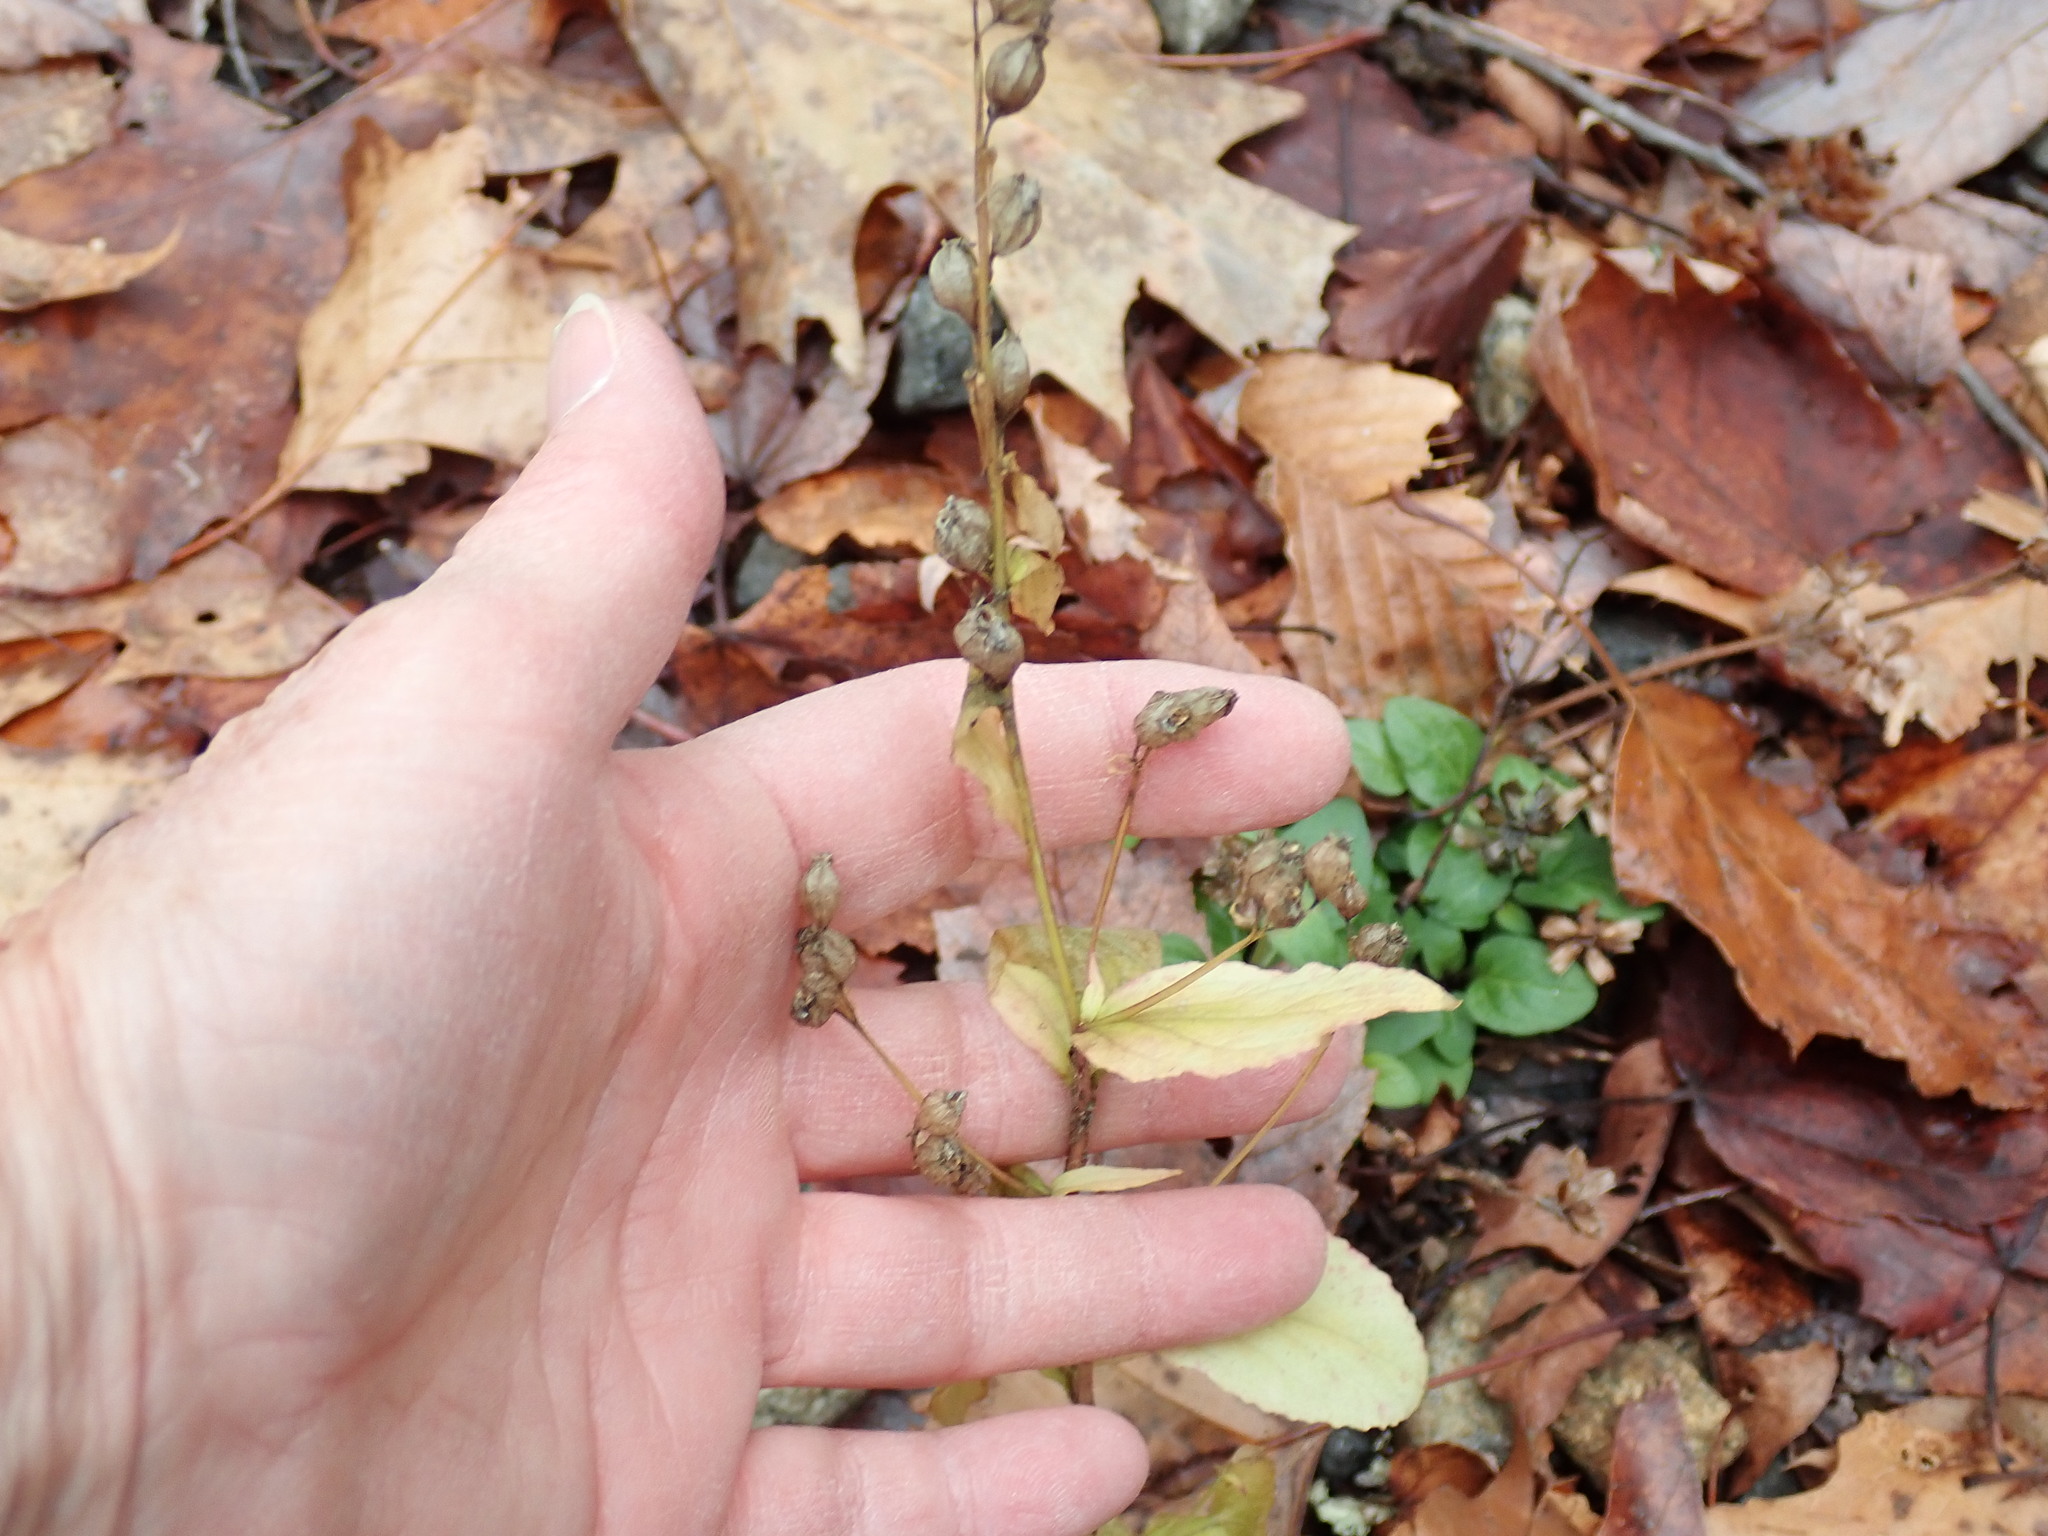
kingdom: Plantae
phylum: Tracheophyta
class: Magnoliopsida
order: Asterales
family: Campanulaceae
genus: Lobelia
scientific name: Lobelia inflata
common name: Indian tobacco
